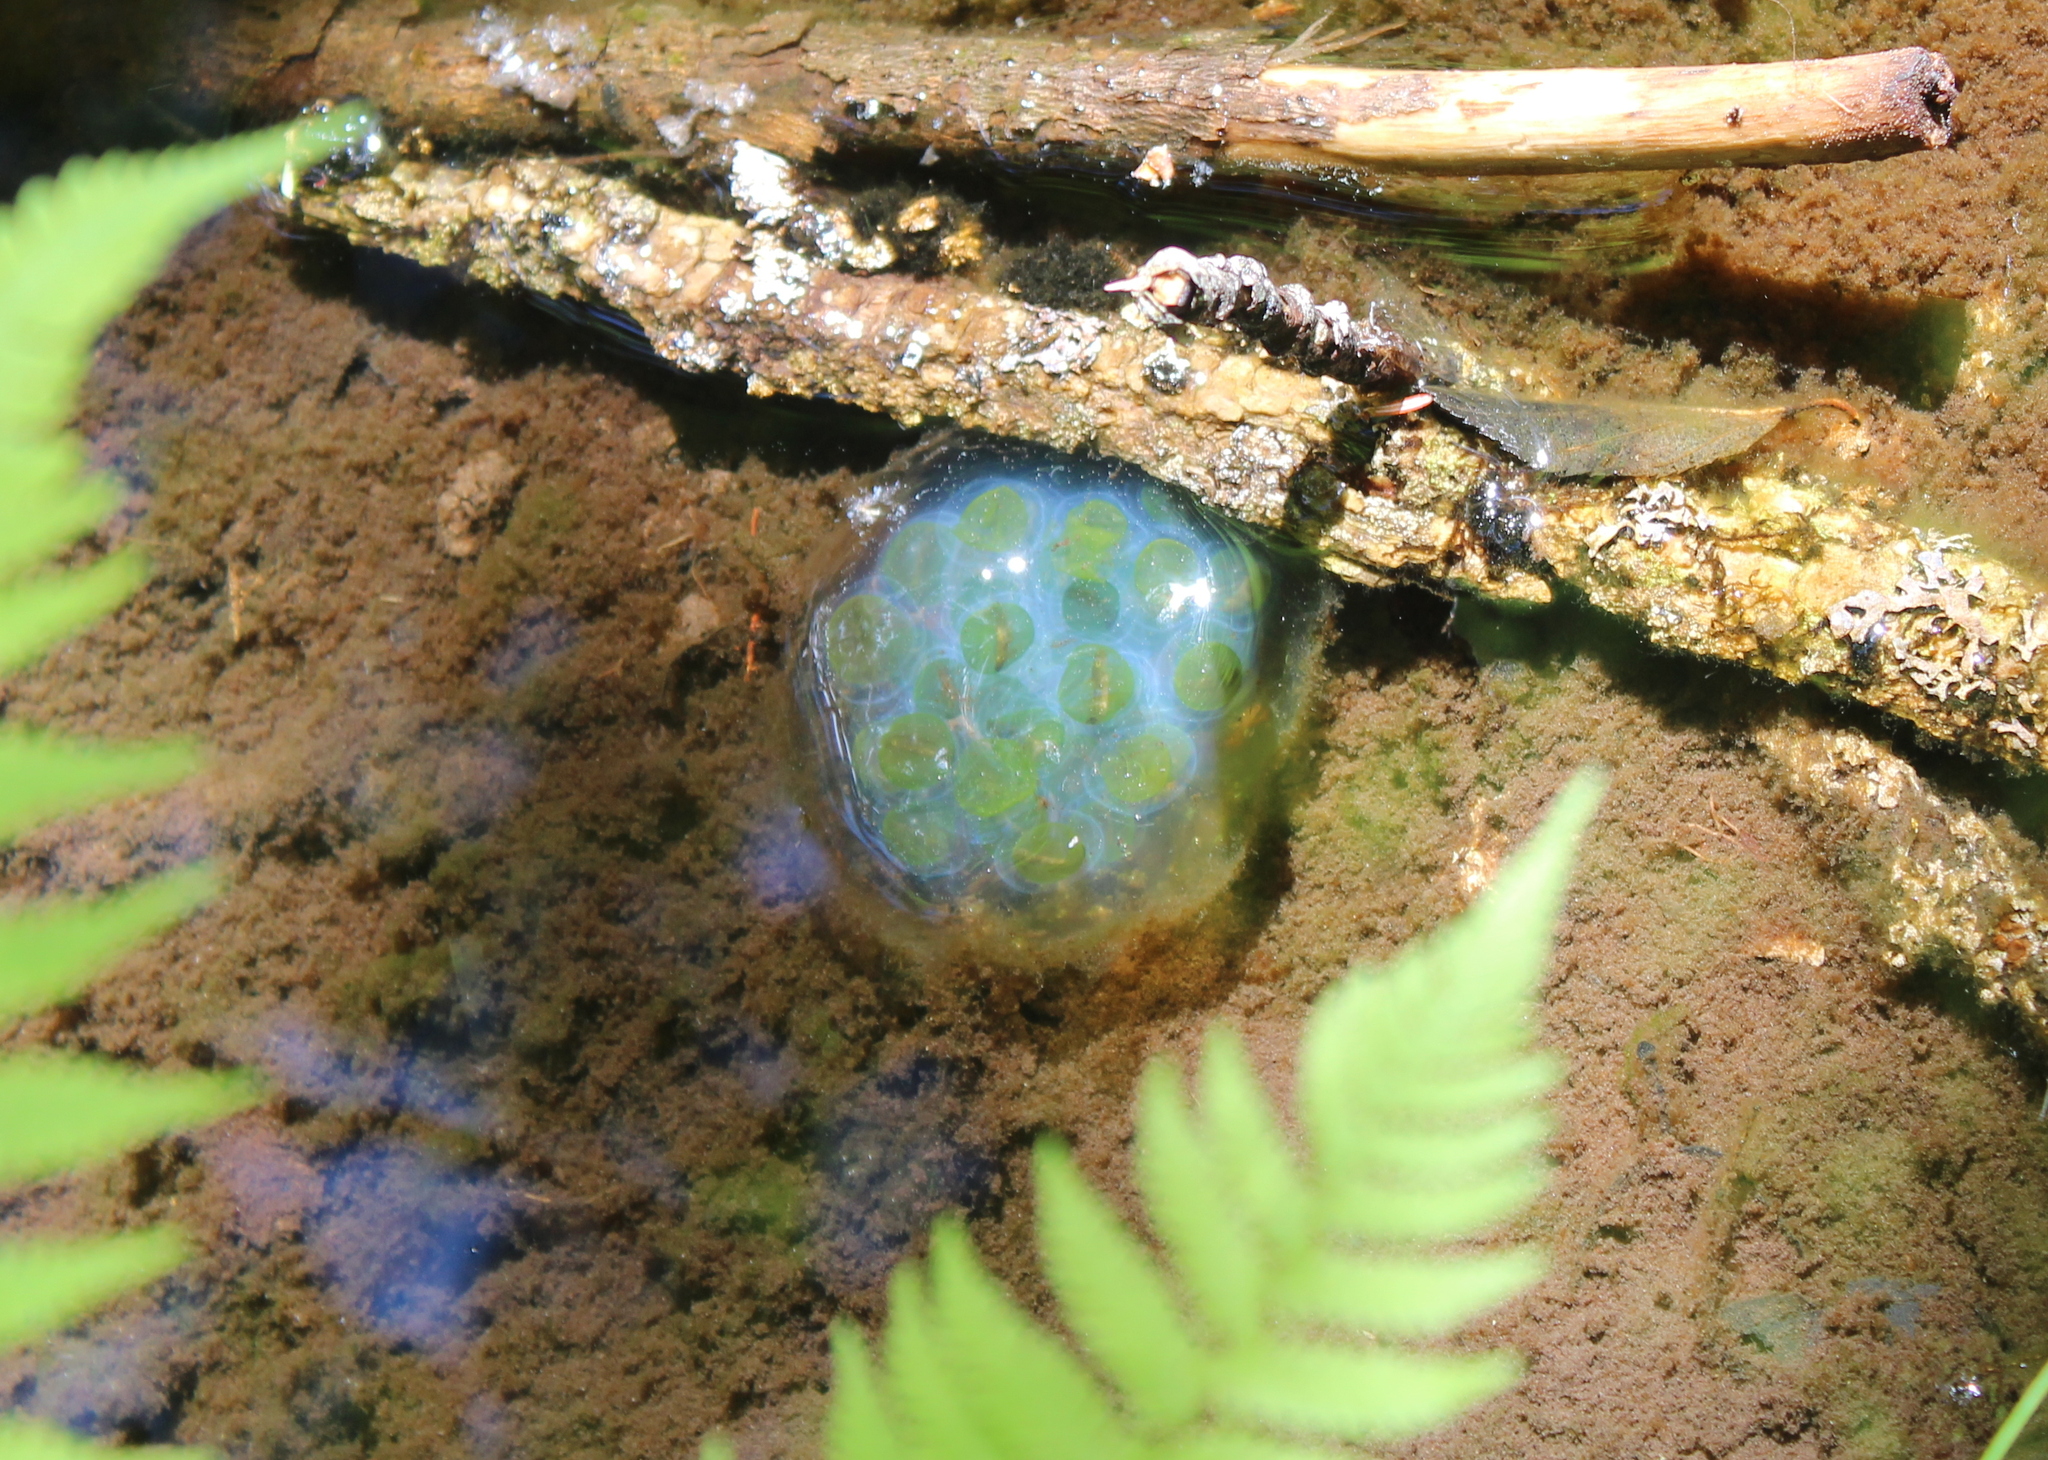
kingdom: Animalia
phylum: Chordata
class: Amphibia
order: Caudata
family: Ambystomatidae
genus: Ambystoma
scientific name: Ambystoma maculatum
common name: Spotted salamander
